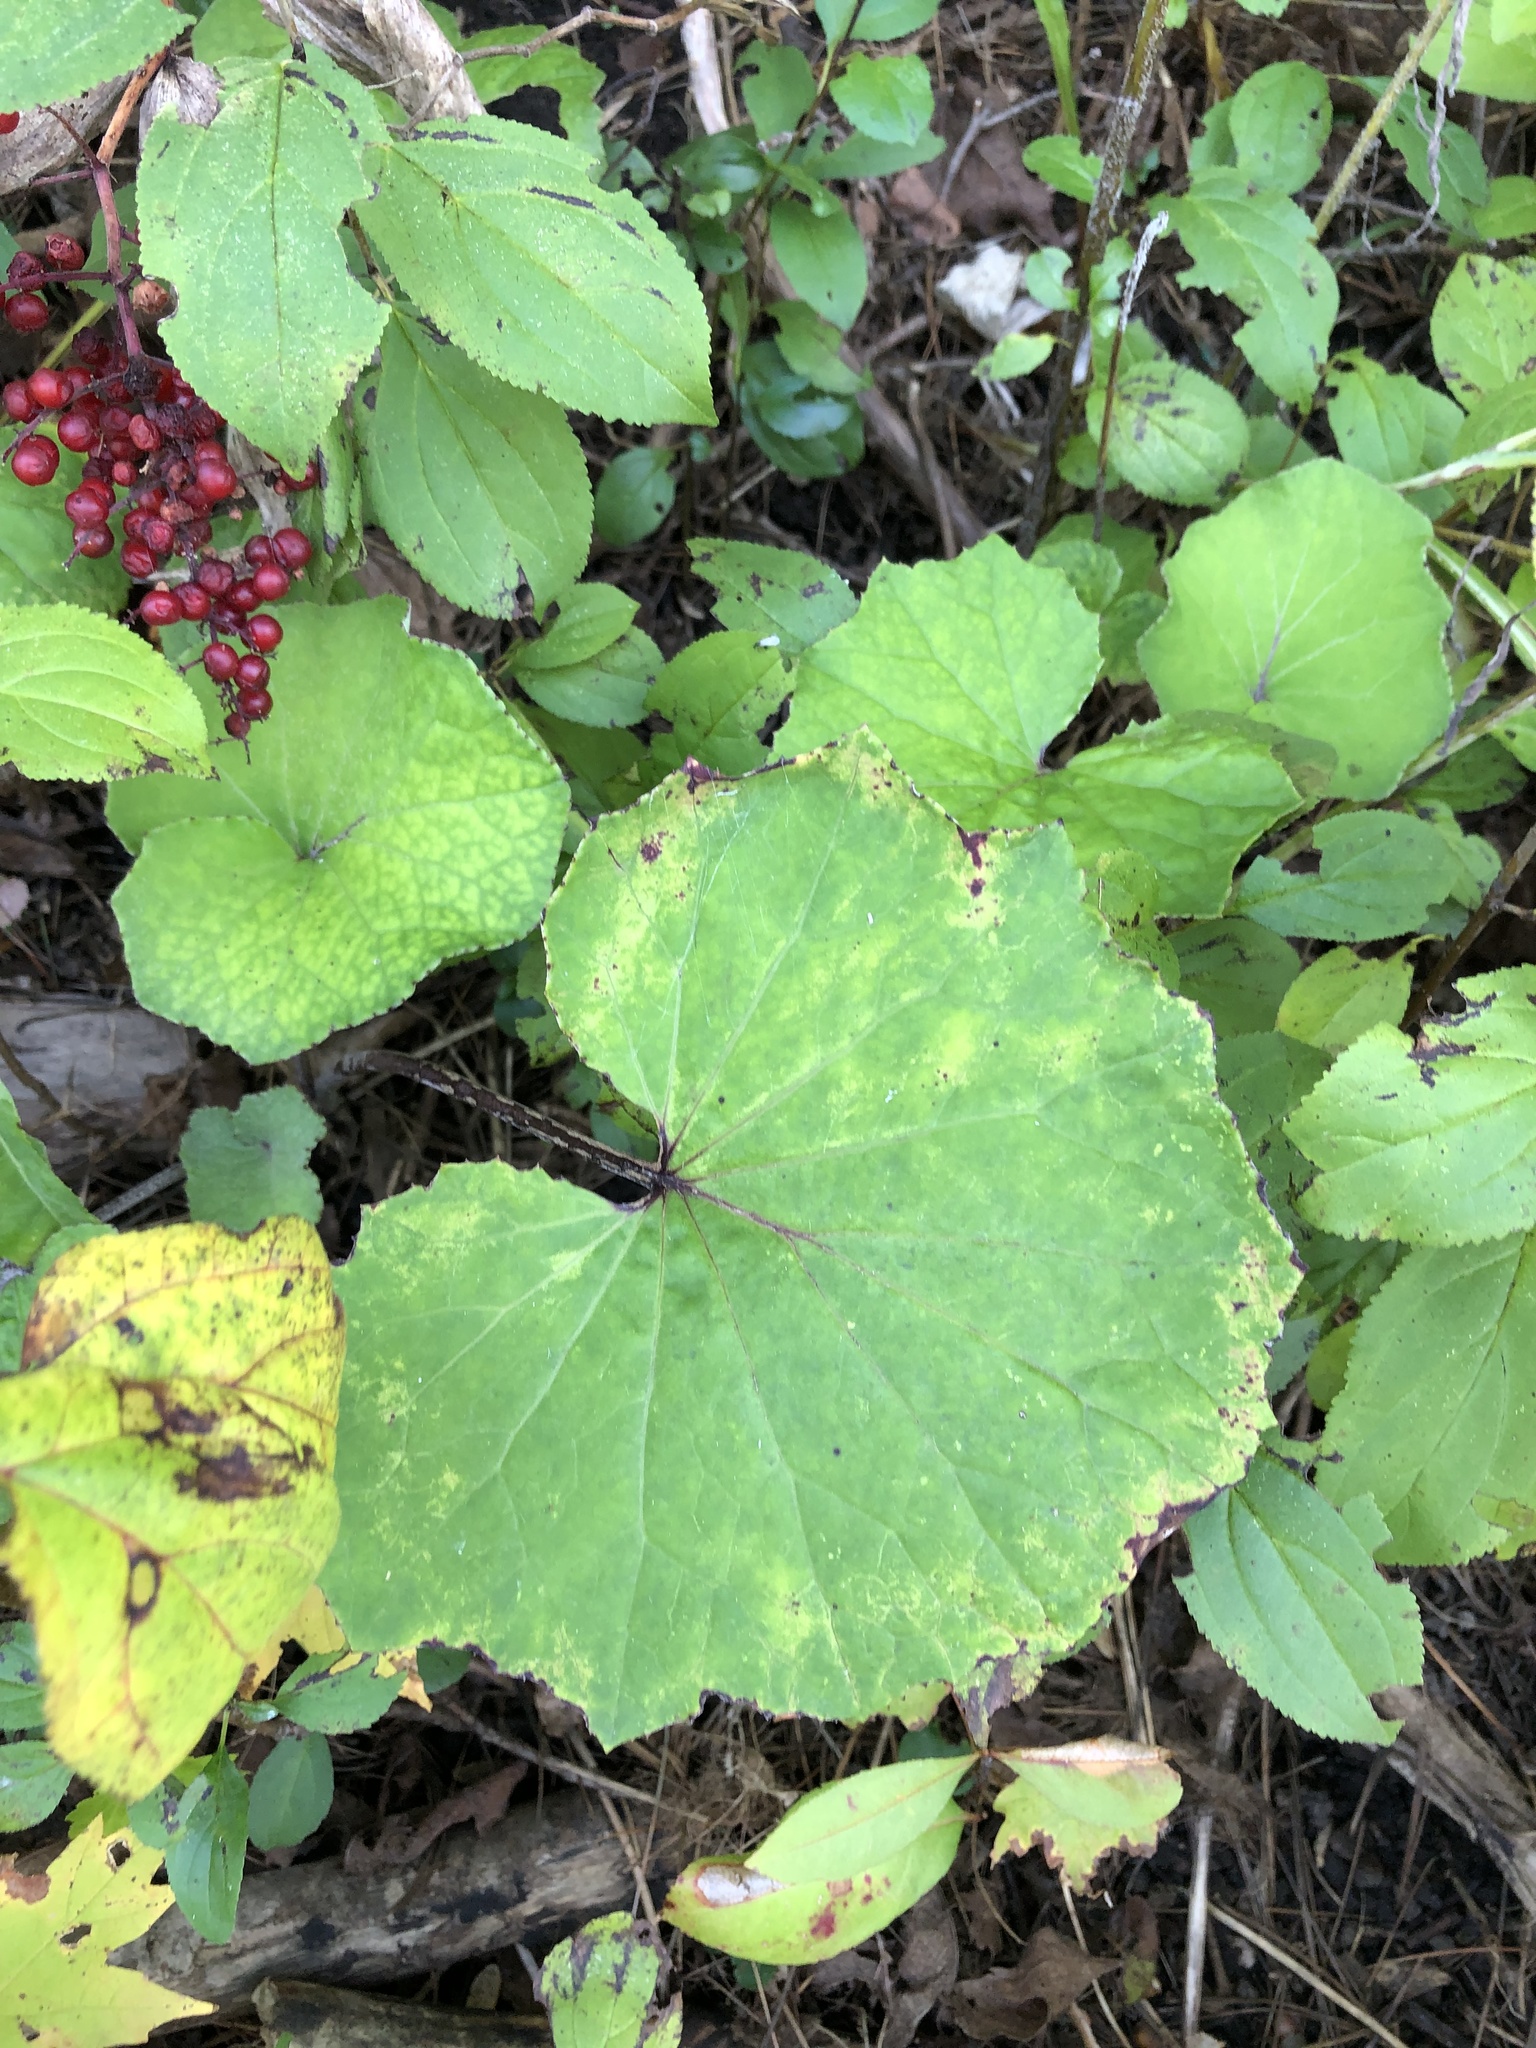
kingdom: Plantae
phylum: Tracheophyta
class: Magnoliopsida
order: Asterales
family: Asteraceae
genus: Tussilago
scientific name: Tussilago farfara
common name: Coltsfoot
